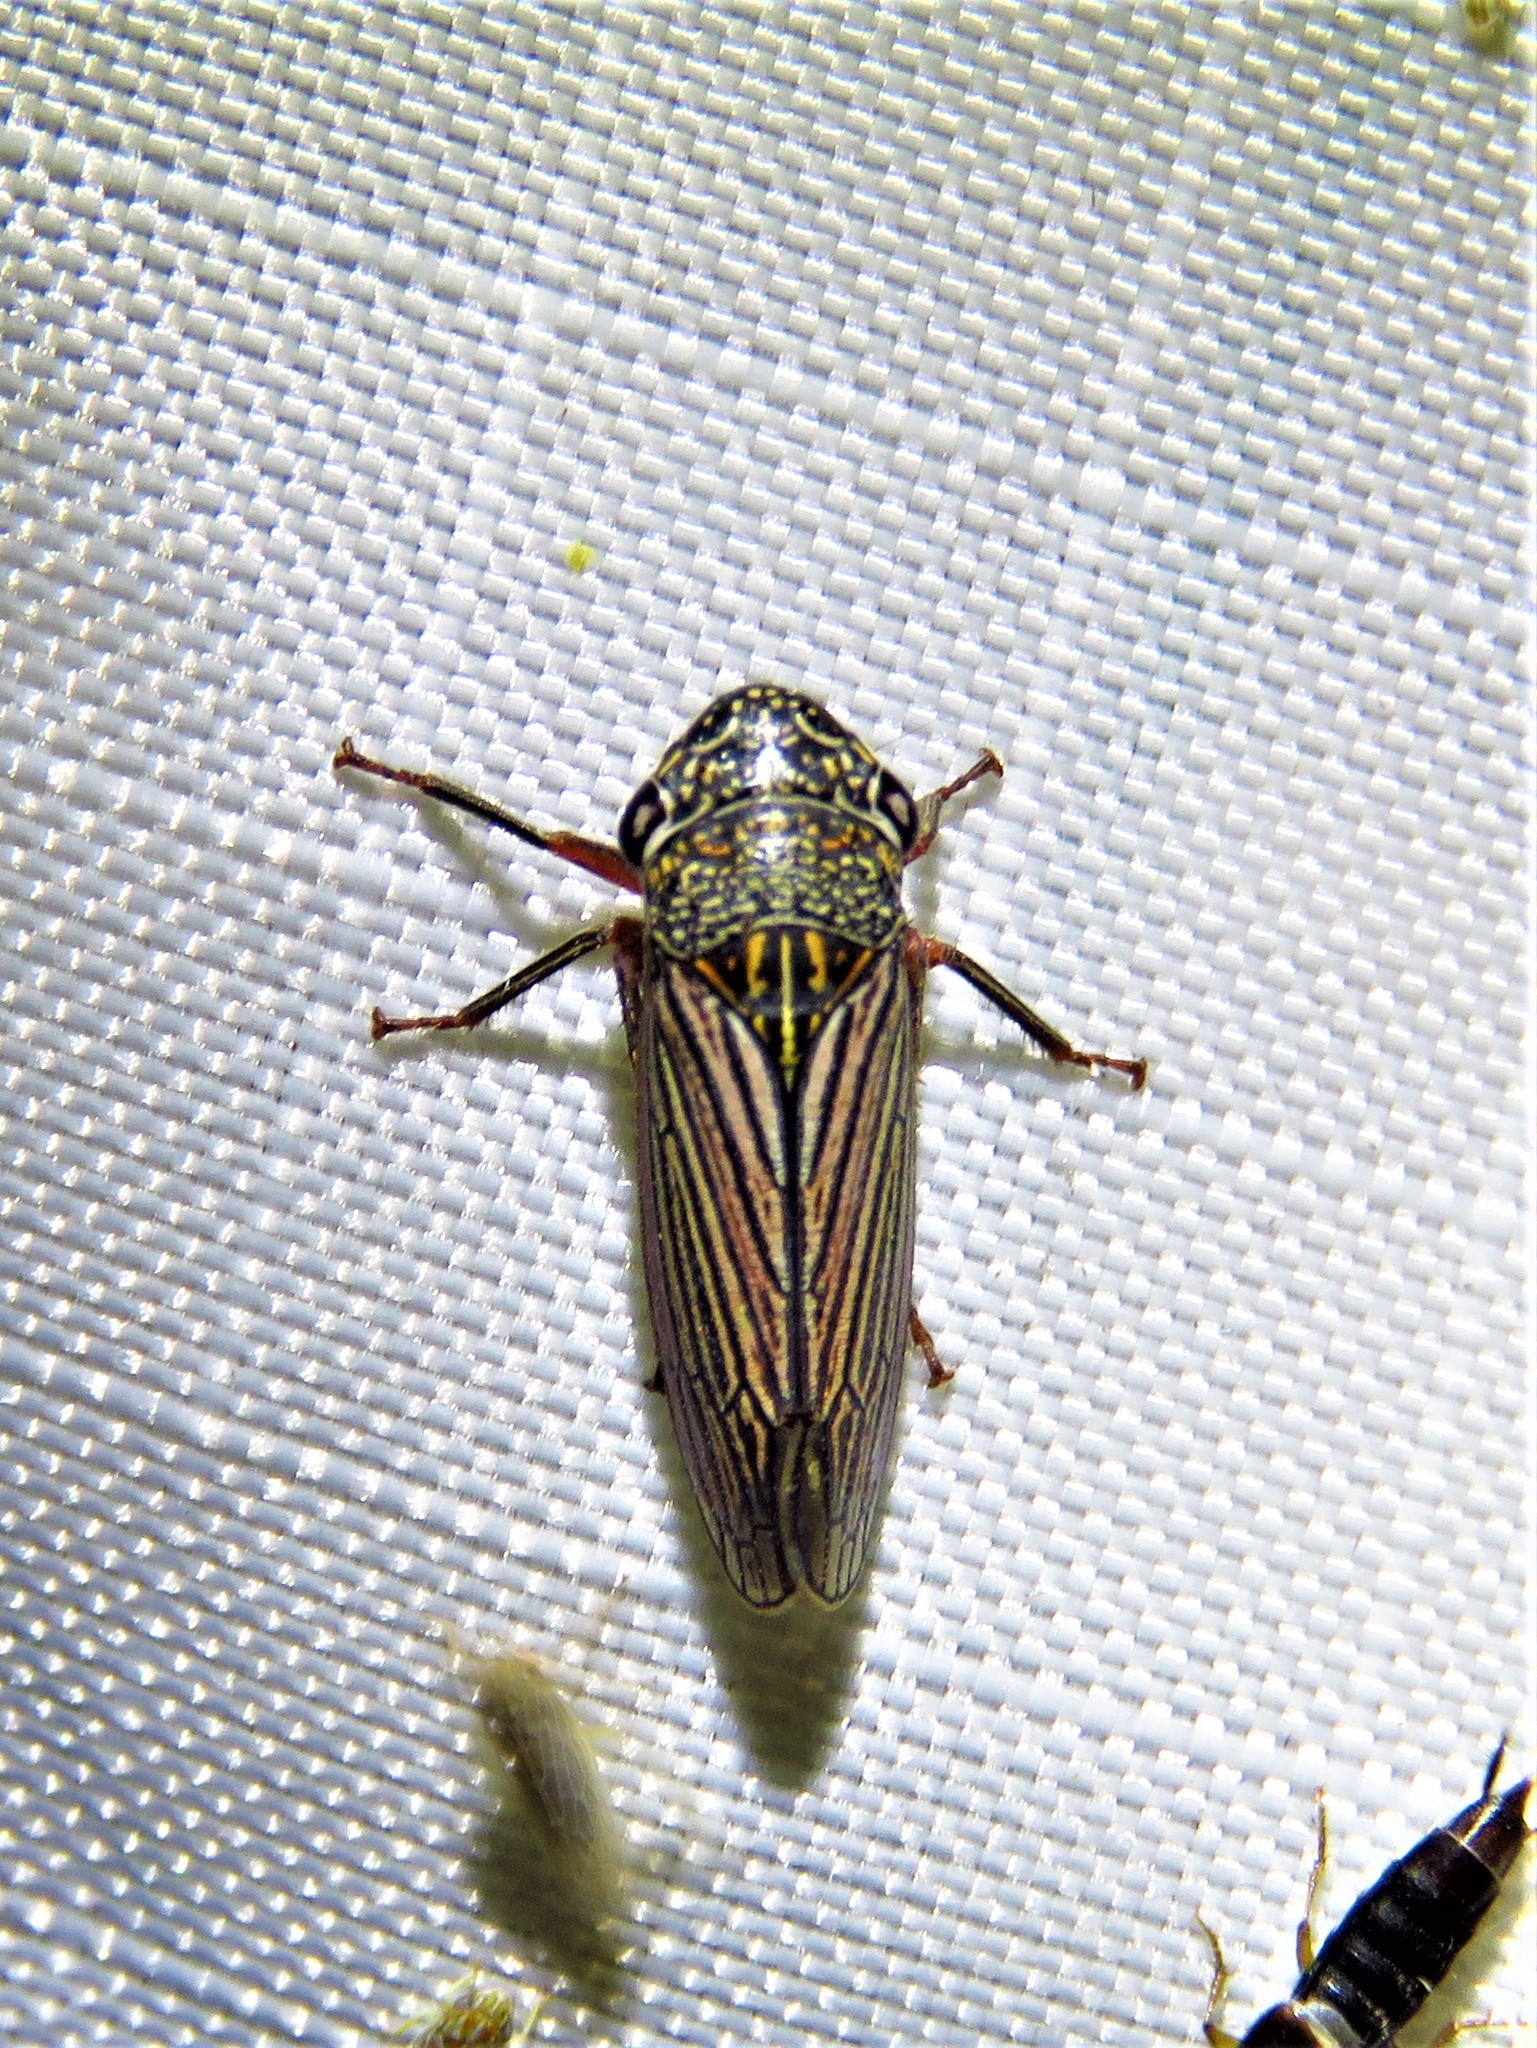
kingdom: Animalia
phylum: Arthropoda
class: Insecta
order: Hemiptera
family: Cicadellidae
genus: Cuerna
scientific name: Cuerna costalis
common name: Lateral-lined sharpshooter
